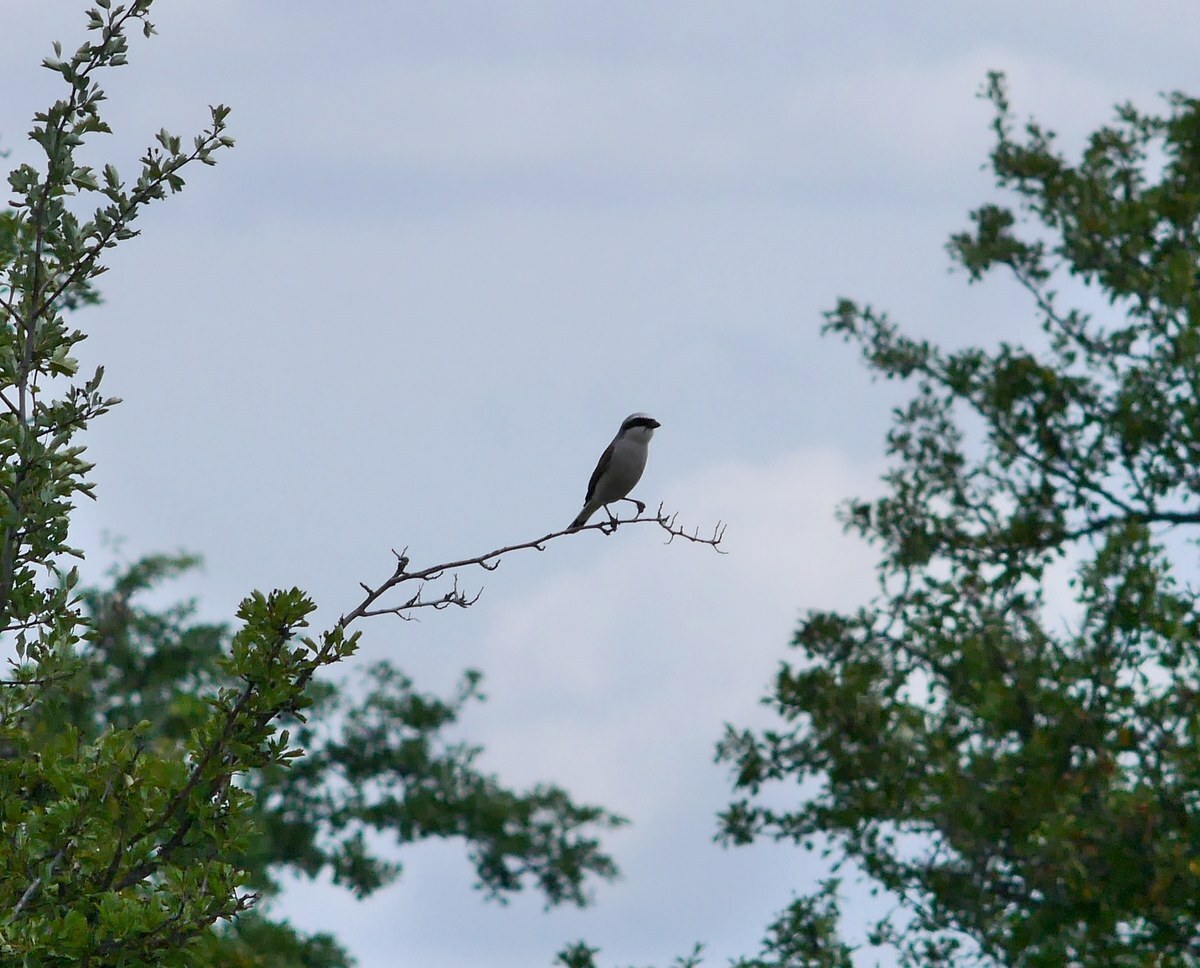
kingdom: Animalia
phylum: Chordata
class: Aves
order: Passeriformes
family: Laniidae
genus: Lanius
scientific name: Lanius collurio
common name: Red-backed shrike
